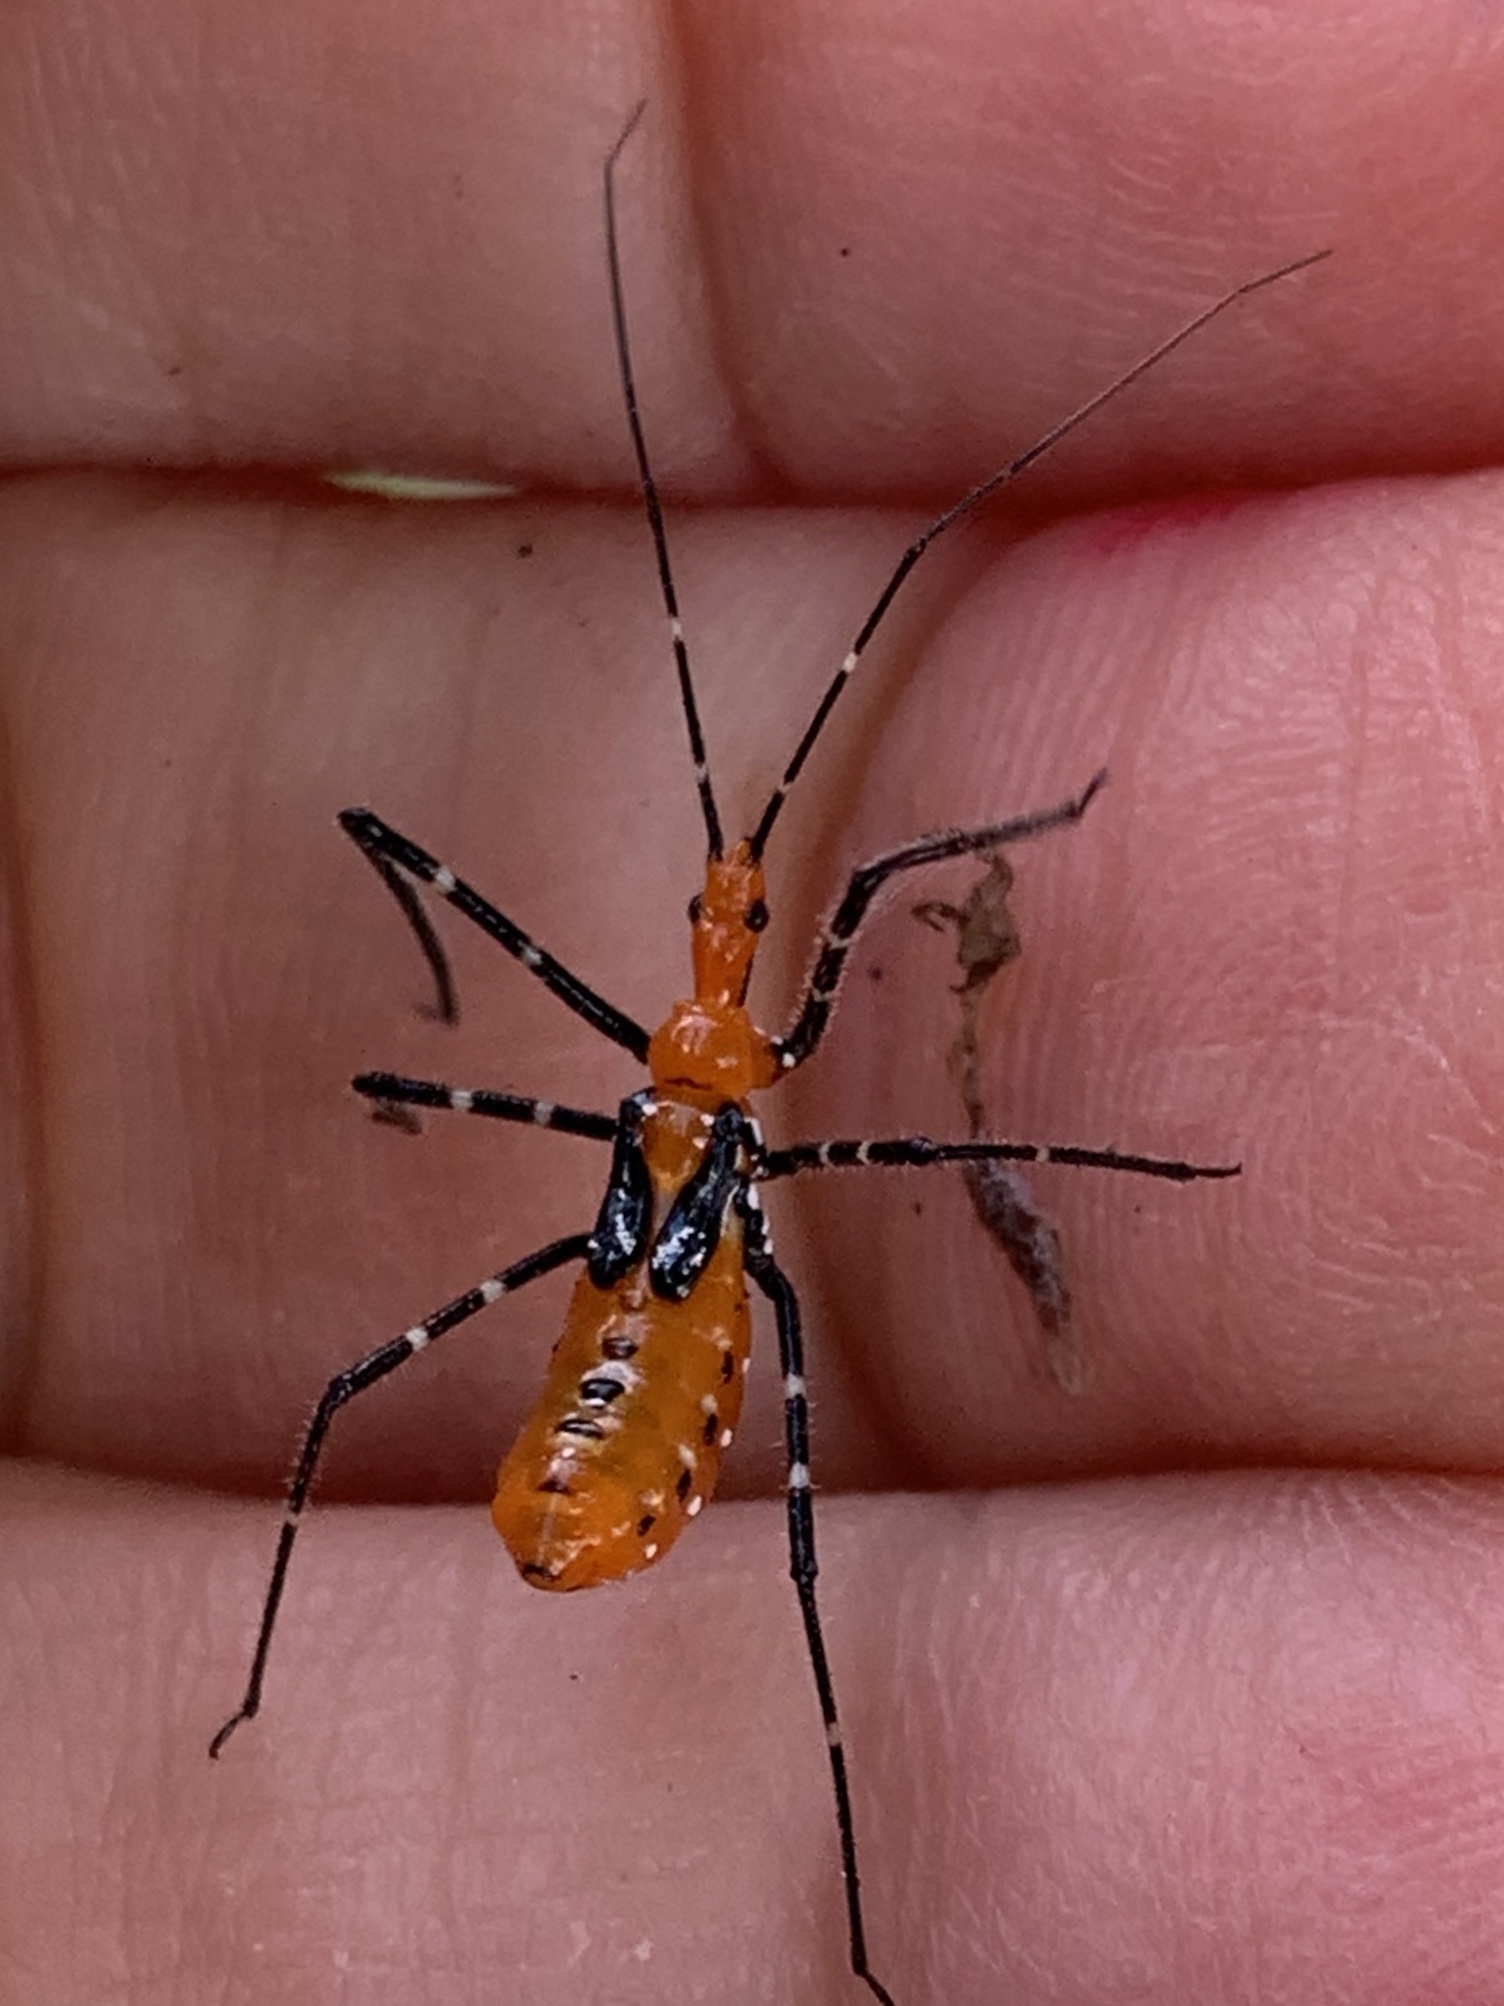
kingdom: Animalia
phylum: Arthropoda
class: Insecta
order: Hemiptera
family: Reduviidae
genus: Zelus
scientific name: Zelus longipes
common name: Milkweed assassin bug
